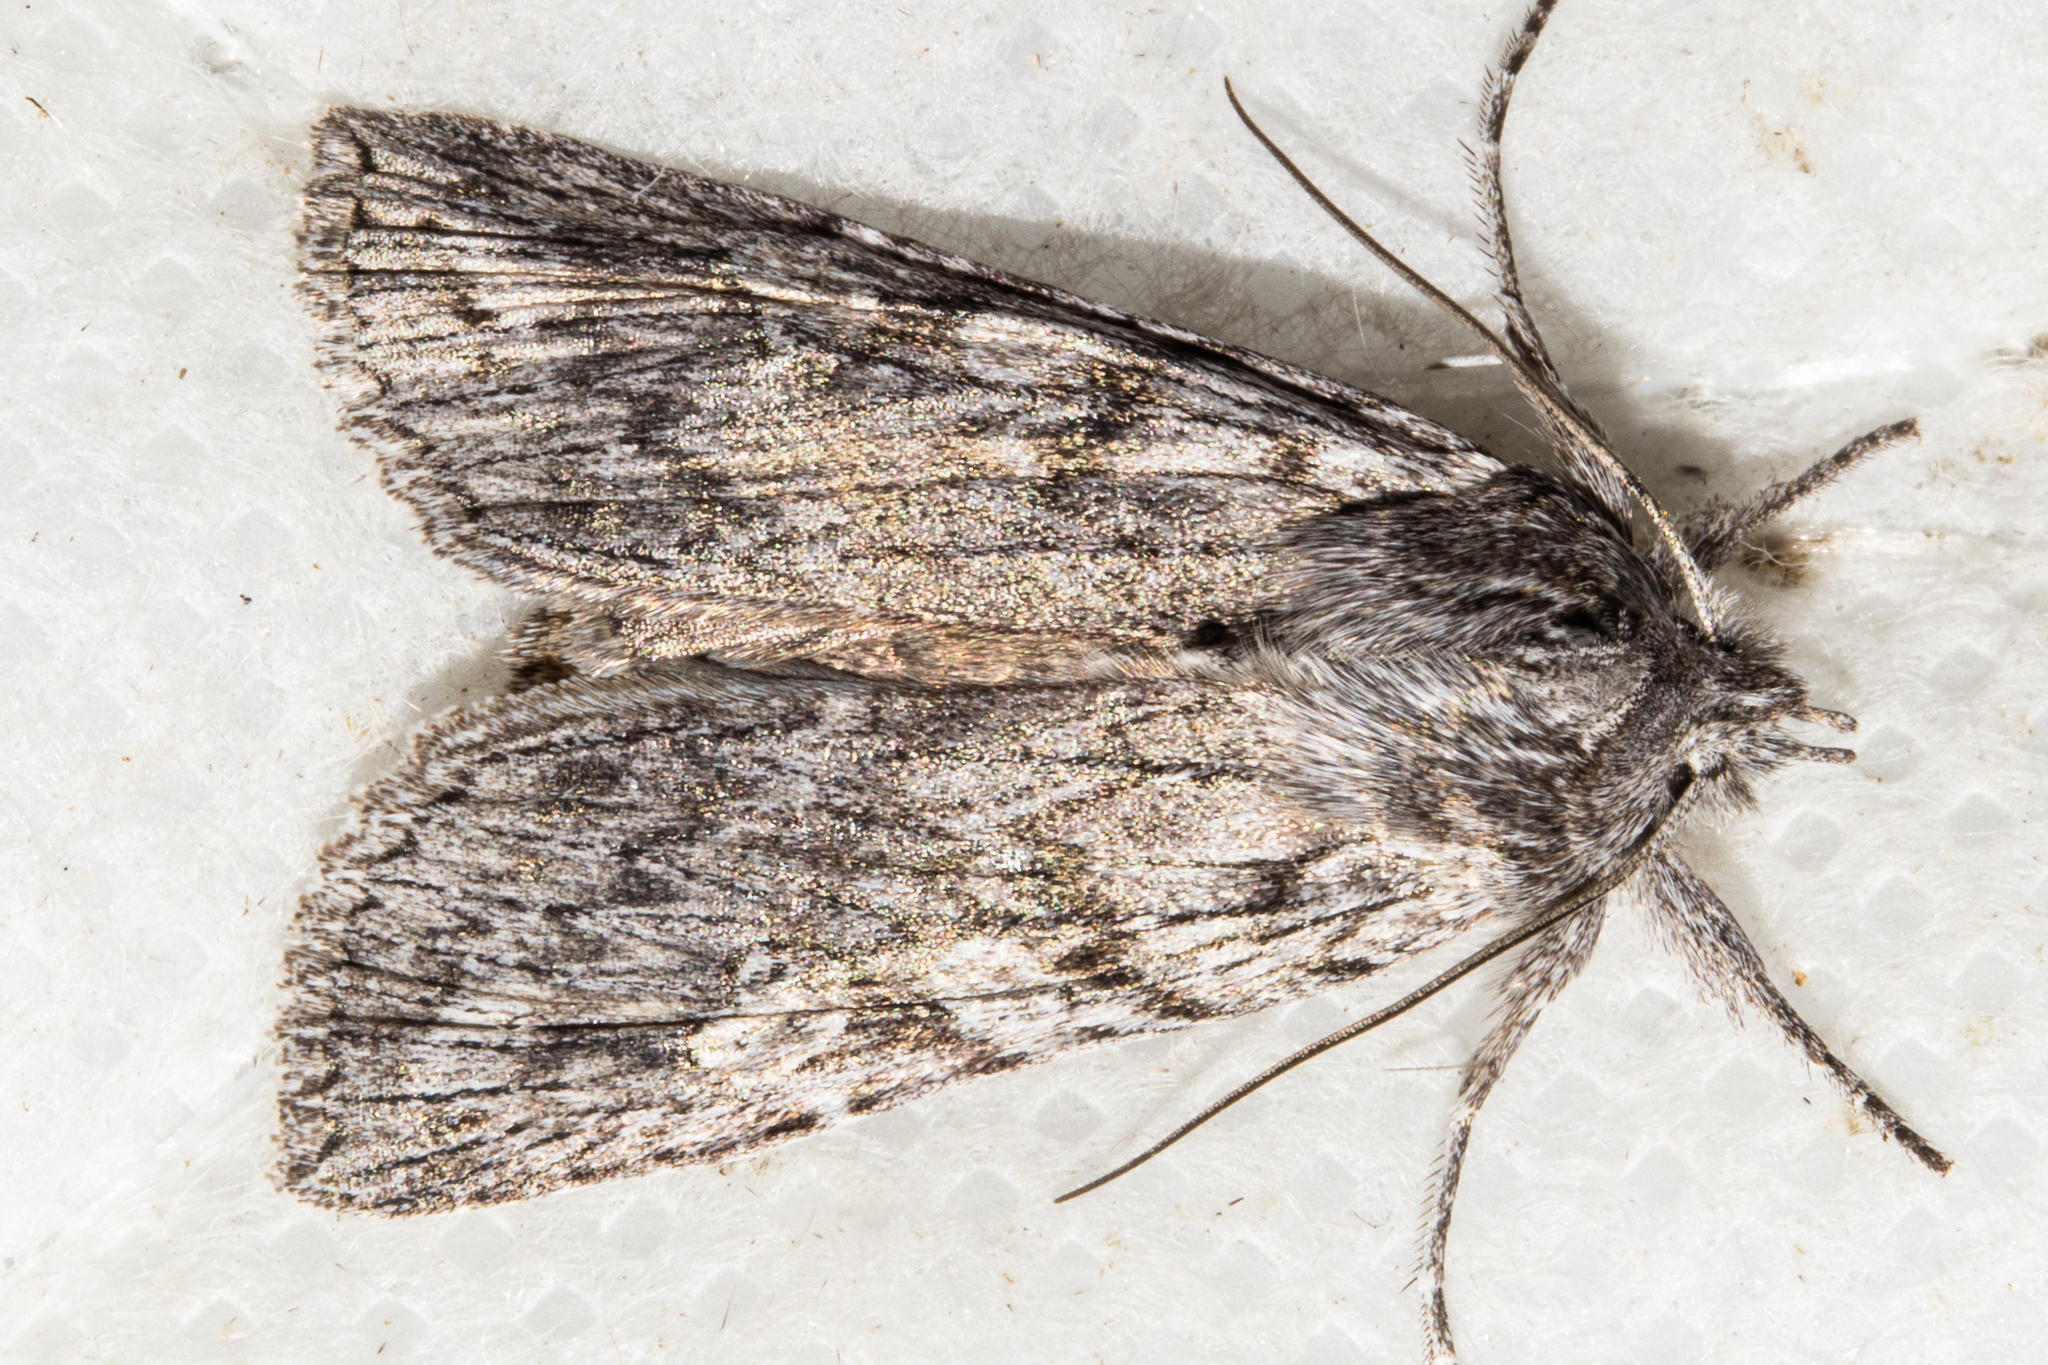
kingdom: Animalia
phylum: Arthropoda
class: Insecta
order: Lepidoptera
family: Noctuidae
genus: Physetica
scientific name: Physetica phricias
